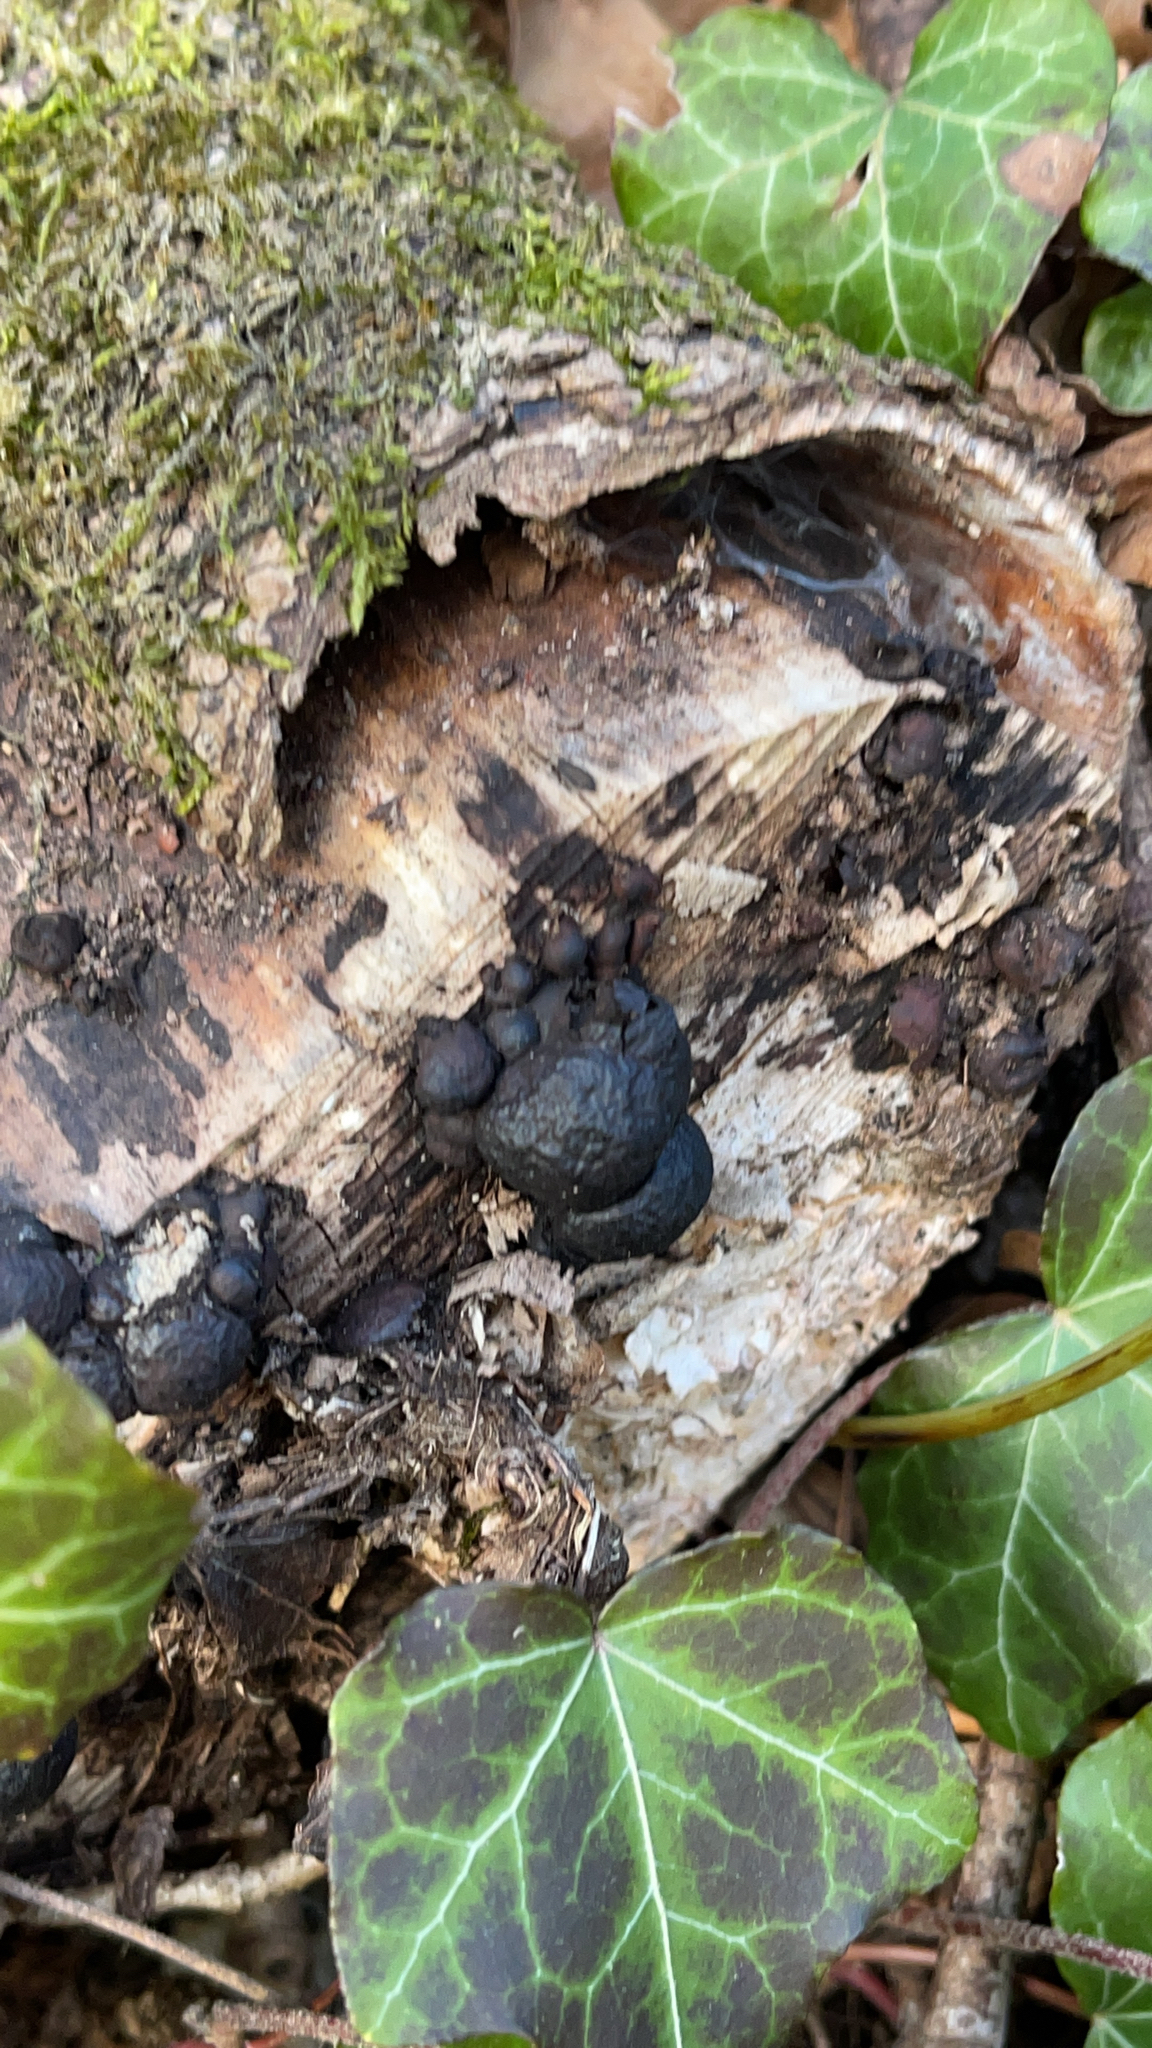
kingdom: Fungi
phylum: Ascomycota
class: Sordariomycetes
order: Xylariales
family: Hypoxylaceae
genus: Daldinia
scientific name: Daldinia concentrica
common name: Cramp balls
